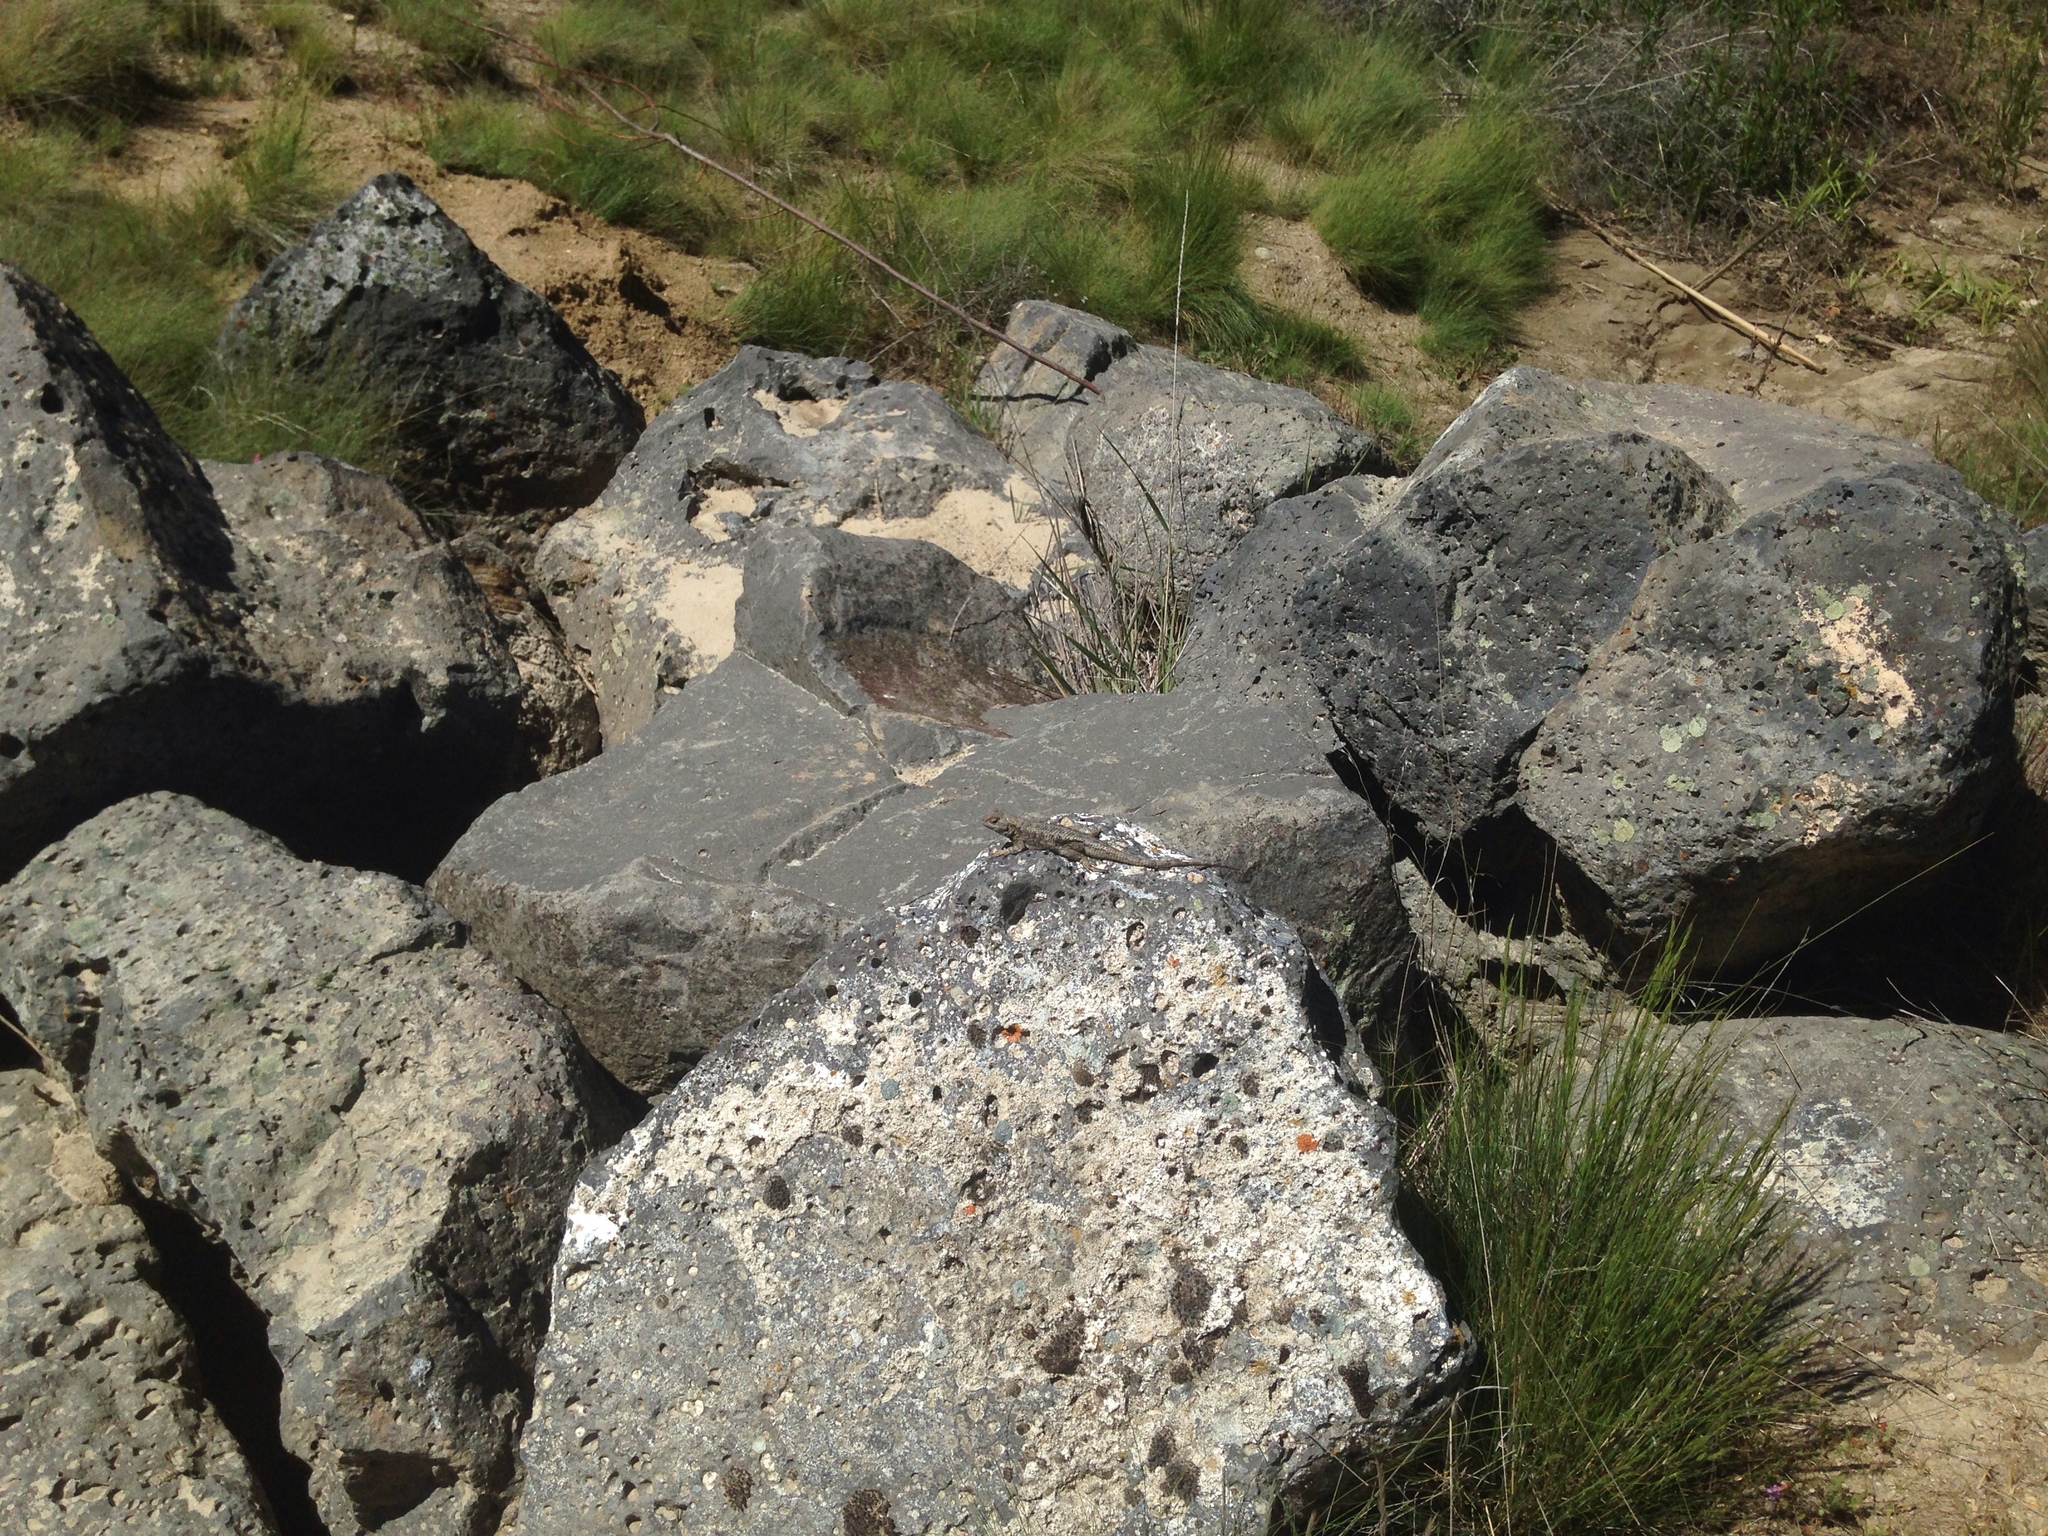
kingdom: Animalia
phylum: Chordata
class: Squamata
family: Phrynosomatidae
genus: Sceloporus
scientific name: Sceloporus occidentalis
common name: Western fence lizard
